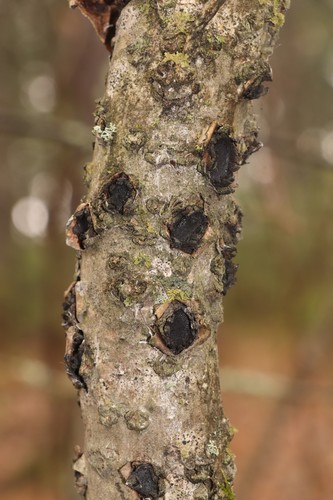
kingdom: Fungi
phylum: Ascomycota
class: Sordariomycetes
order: Xylariales
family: Graphostromataceae
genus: Biscogniauxia
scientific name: Biscogniauxia repanda
